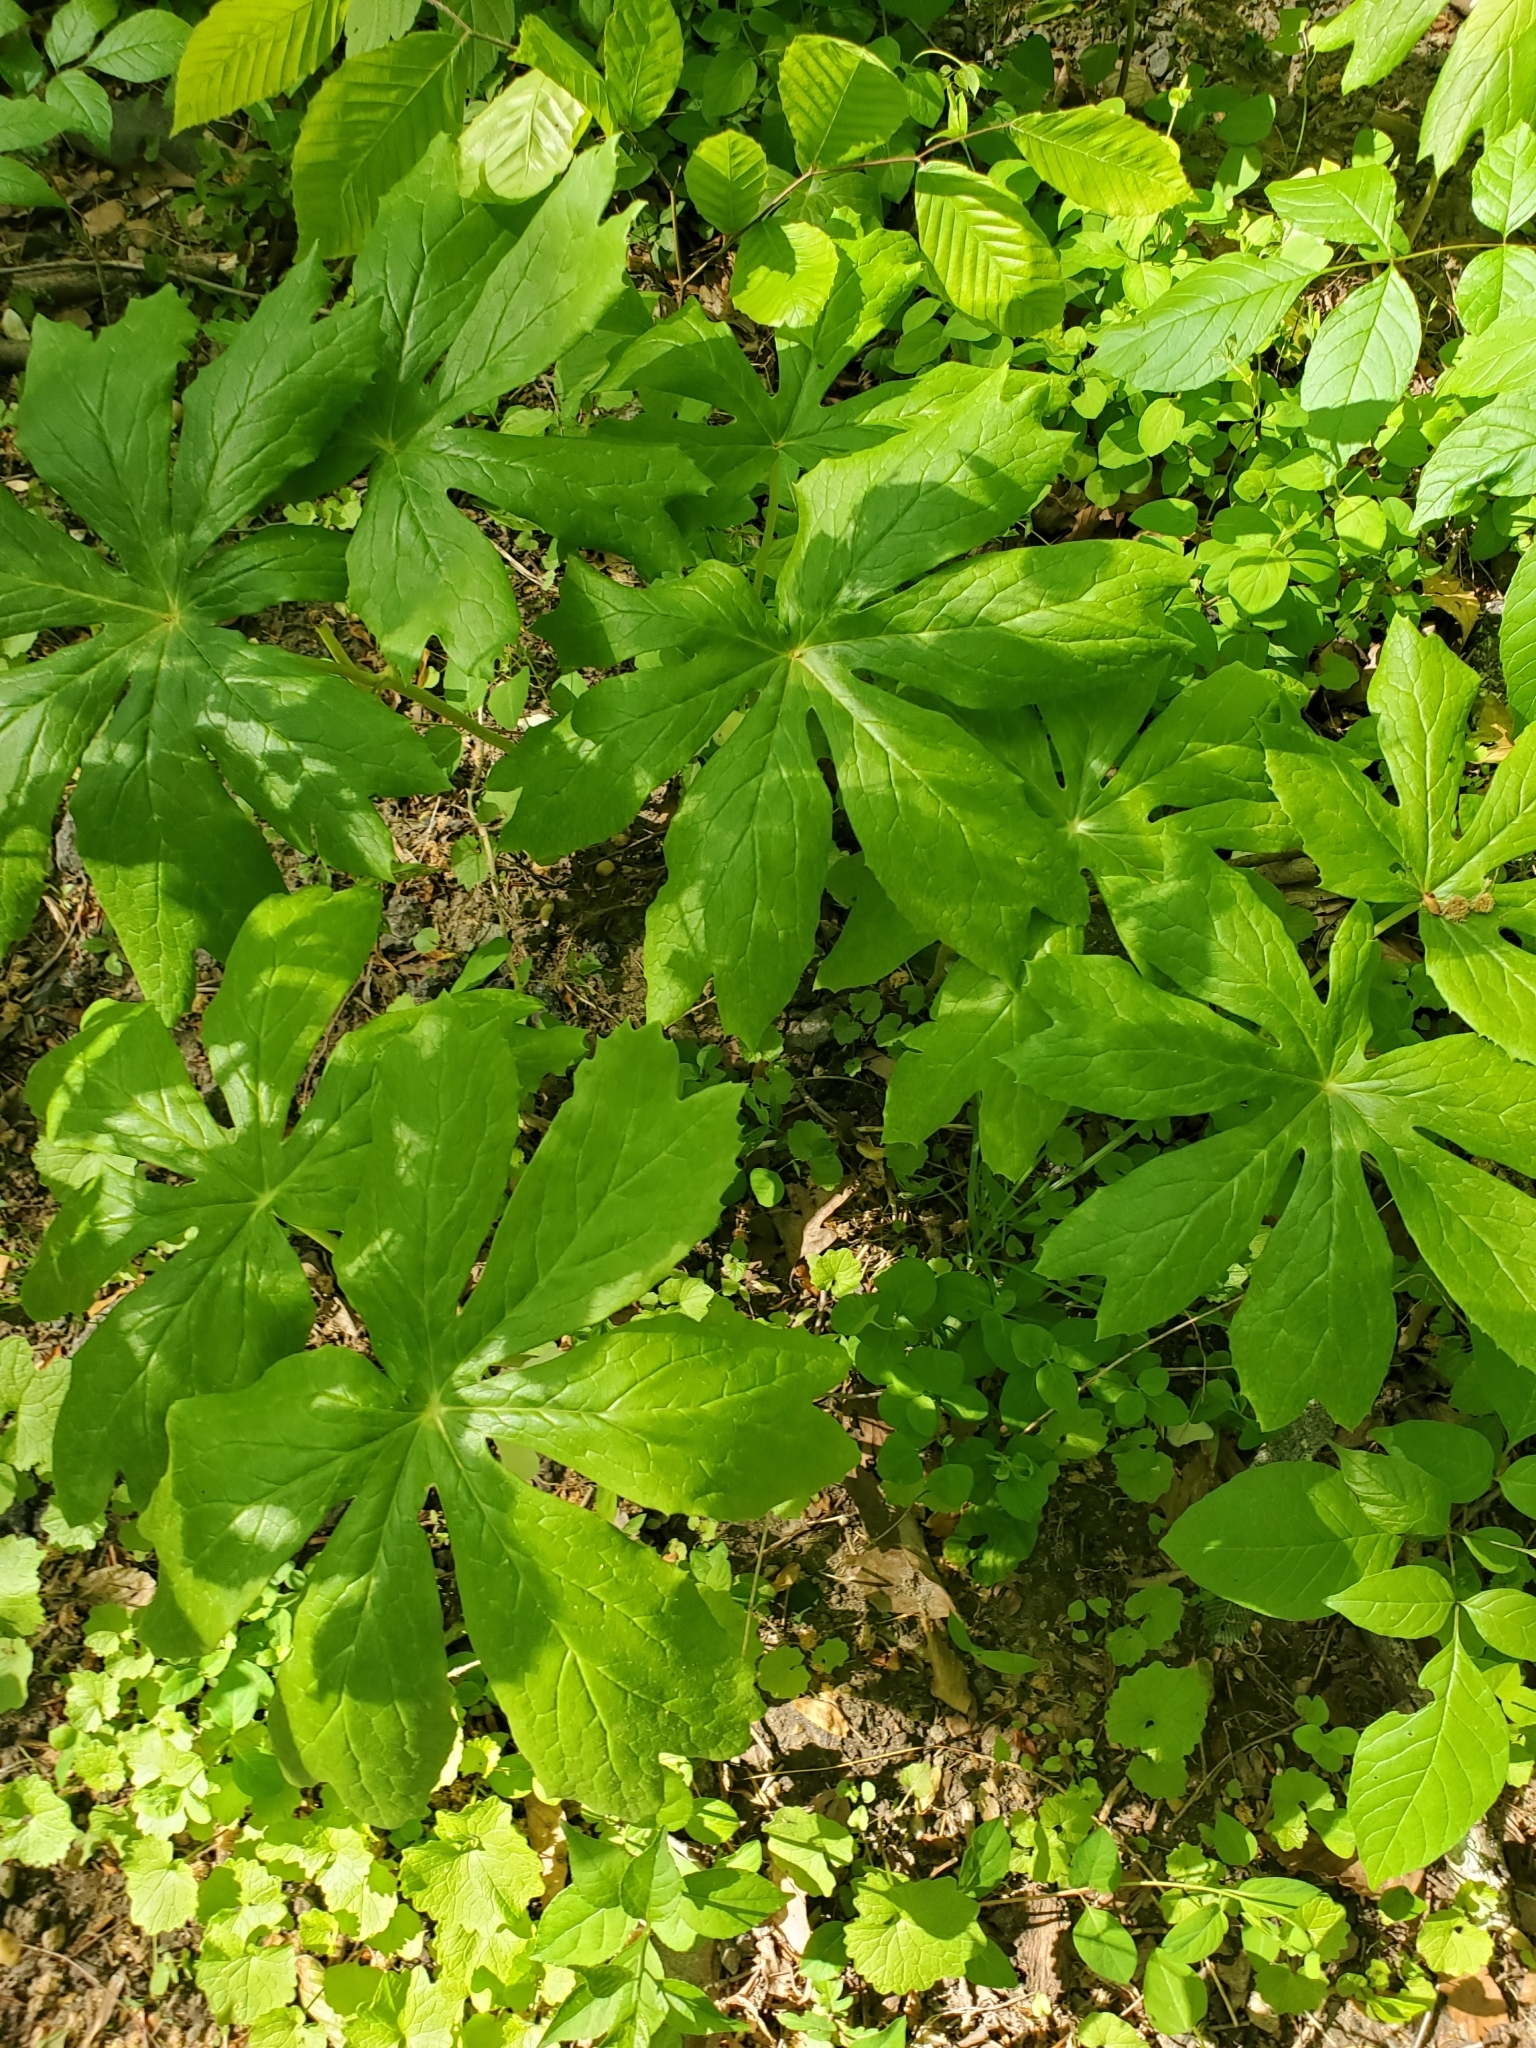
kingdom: Plantae
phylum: Tracheophyta
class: Magnoliopsida
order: Ranunculales
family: Berberidaceae
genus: Podophyllum
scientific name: Podophyllum peltatum
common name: Wild mandrake
